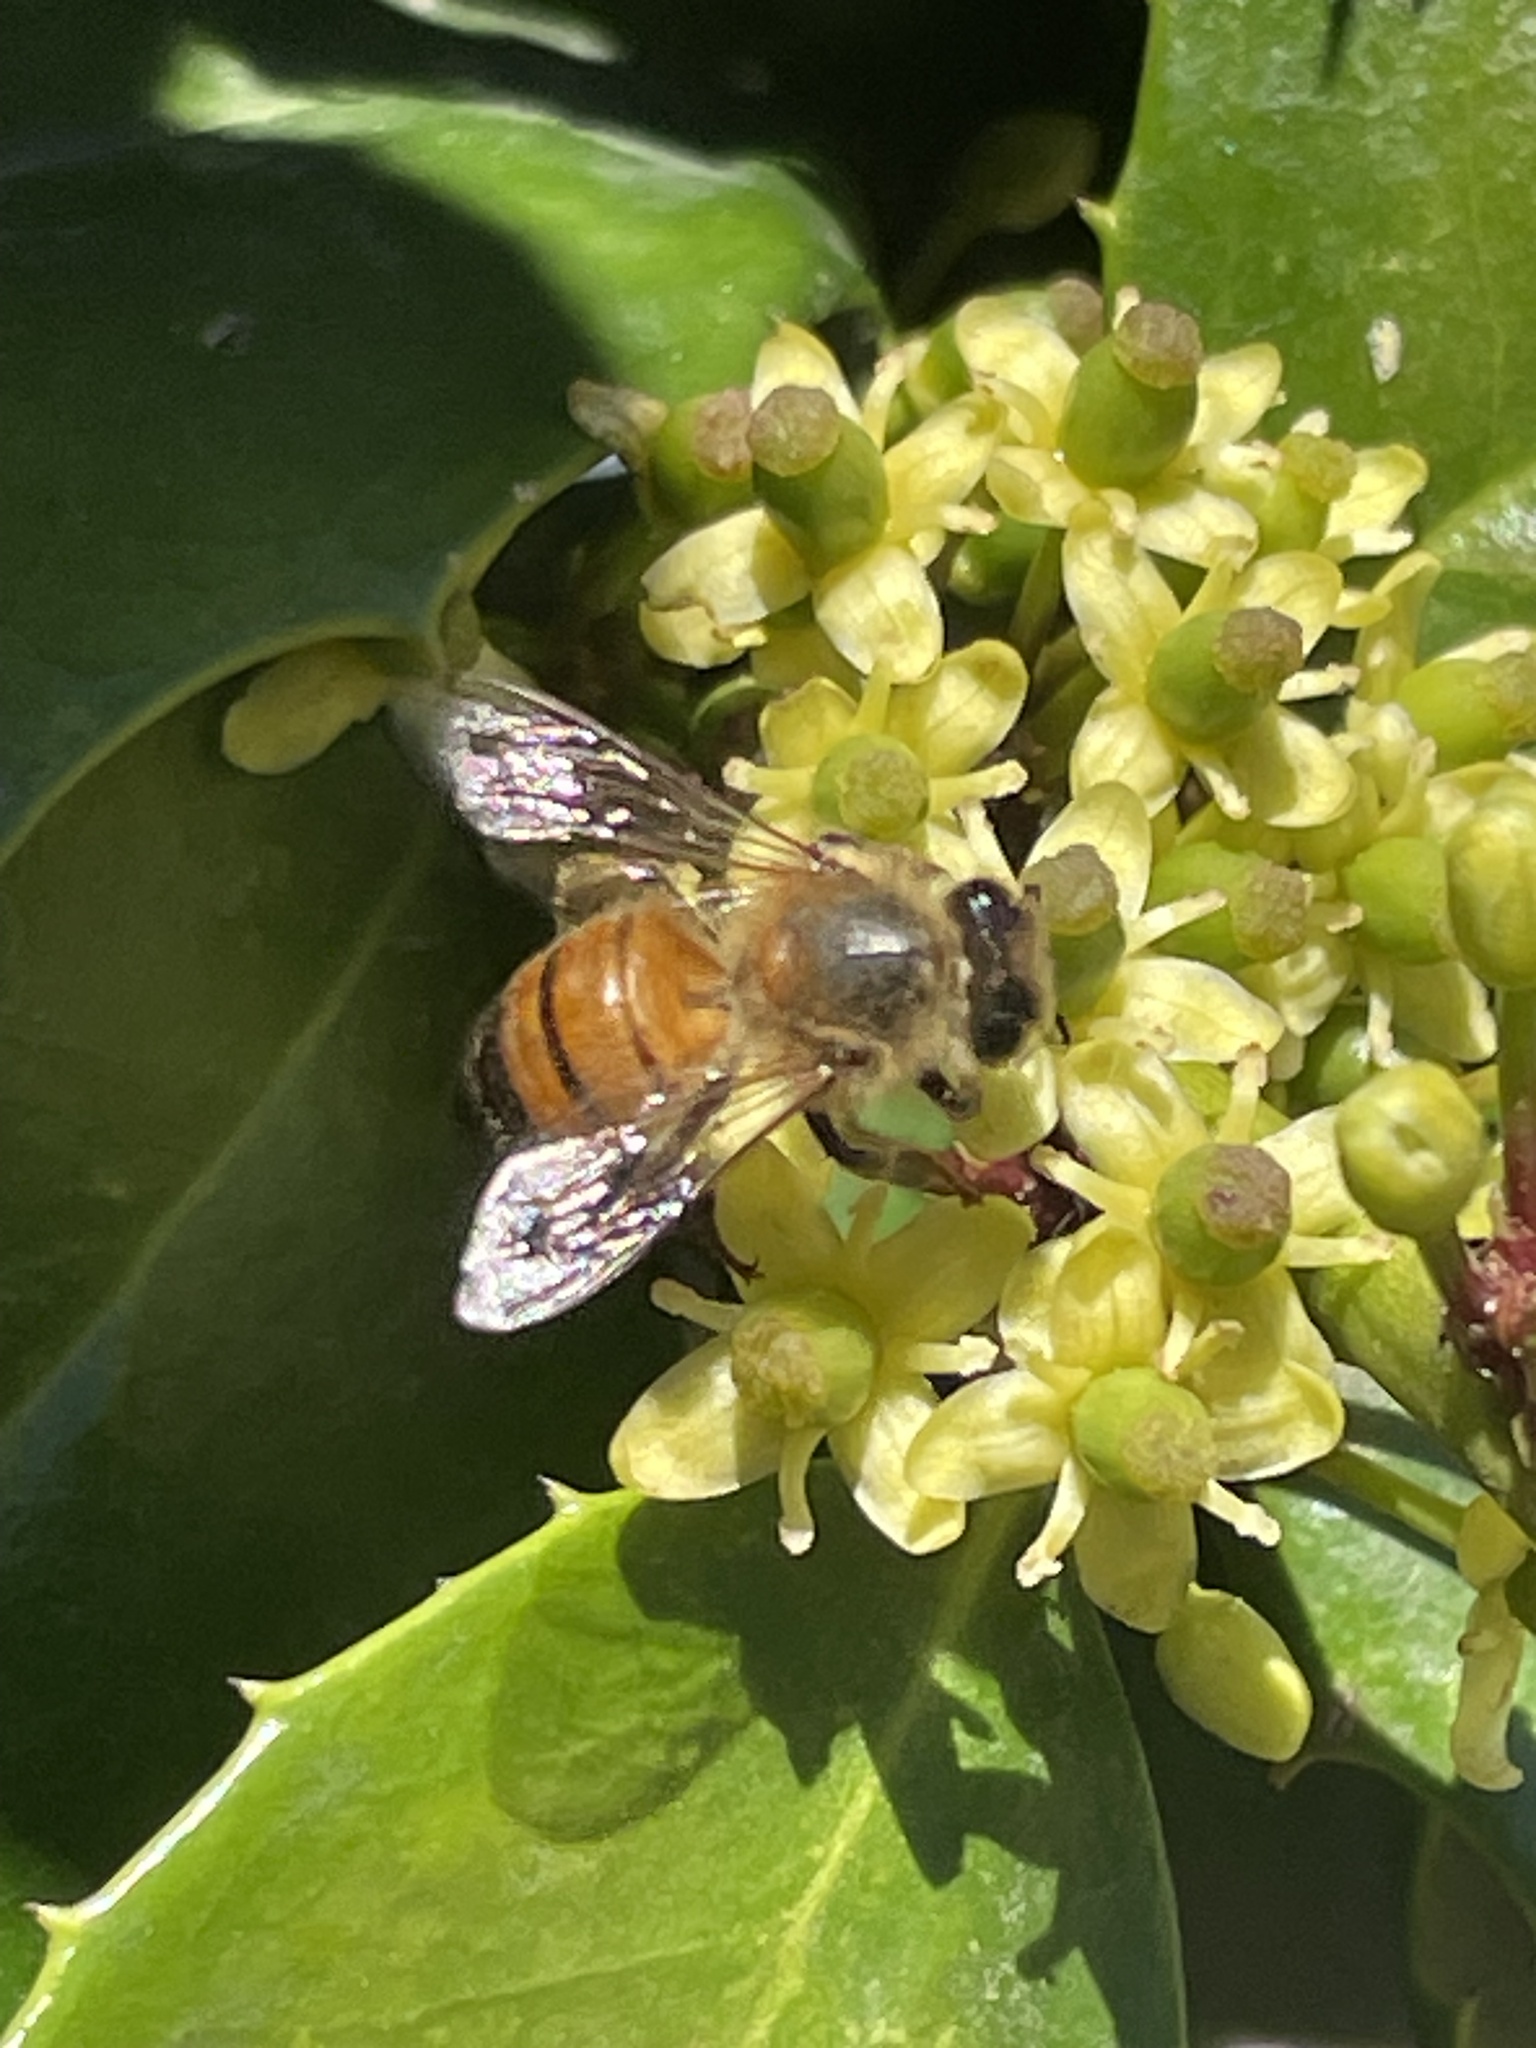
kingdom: Animalia
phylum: Arthropoda
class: Insecta
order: Hymenoptera
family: Apidae
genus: Apis
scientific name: Apis mellifera
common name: Honey bee
